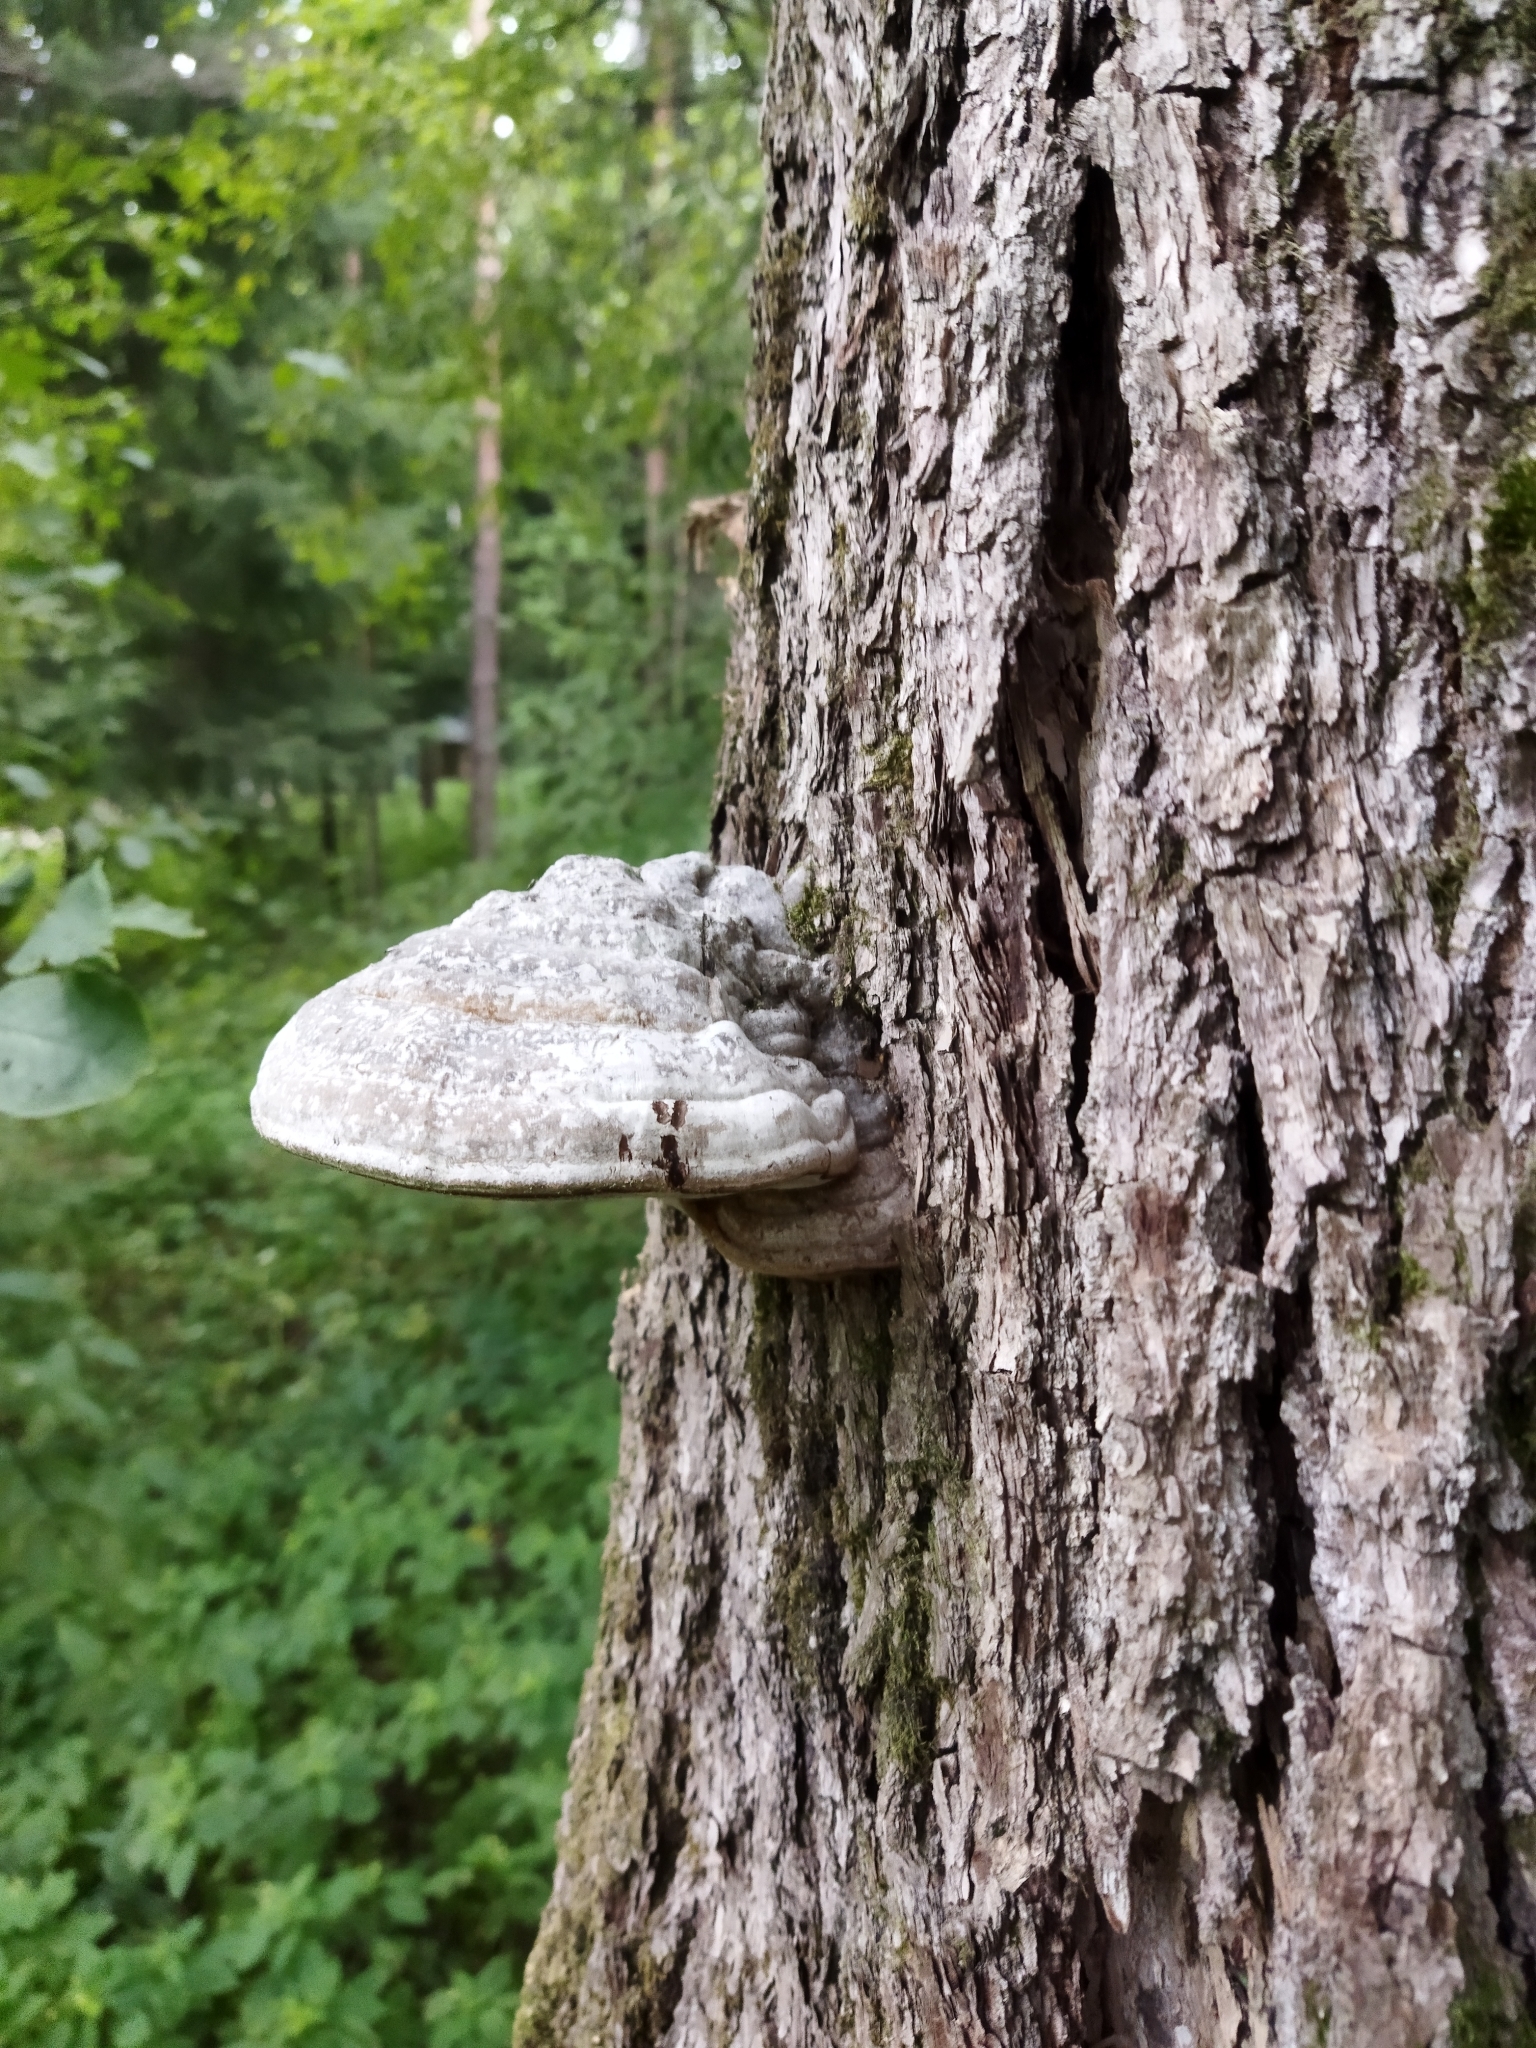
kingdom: Fungi
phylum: Basidiomycota
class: Agaricomycetes
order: Polyporales
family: Polyporaceae
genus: Fomes
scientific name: Fomes fomentarius
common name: Hoof fungus
